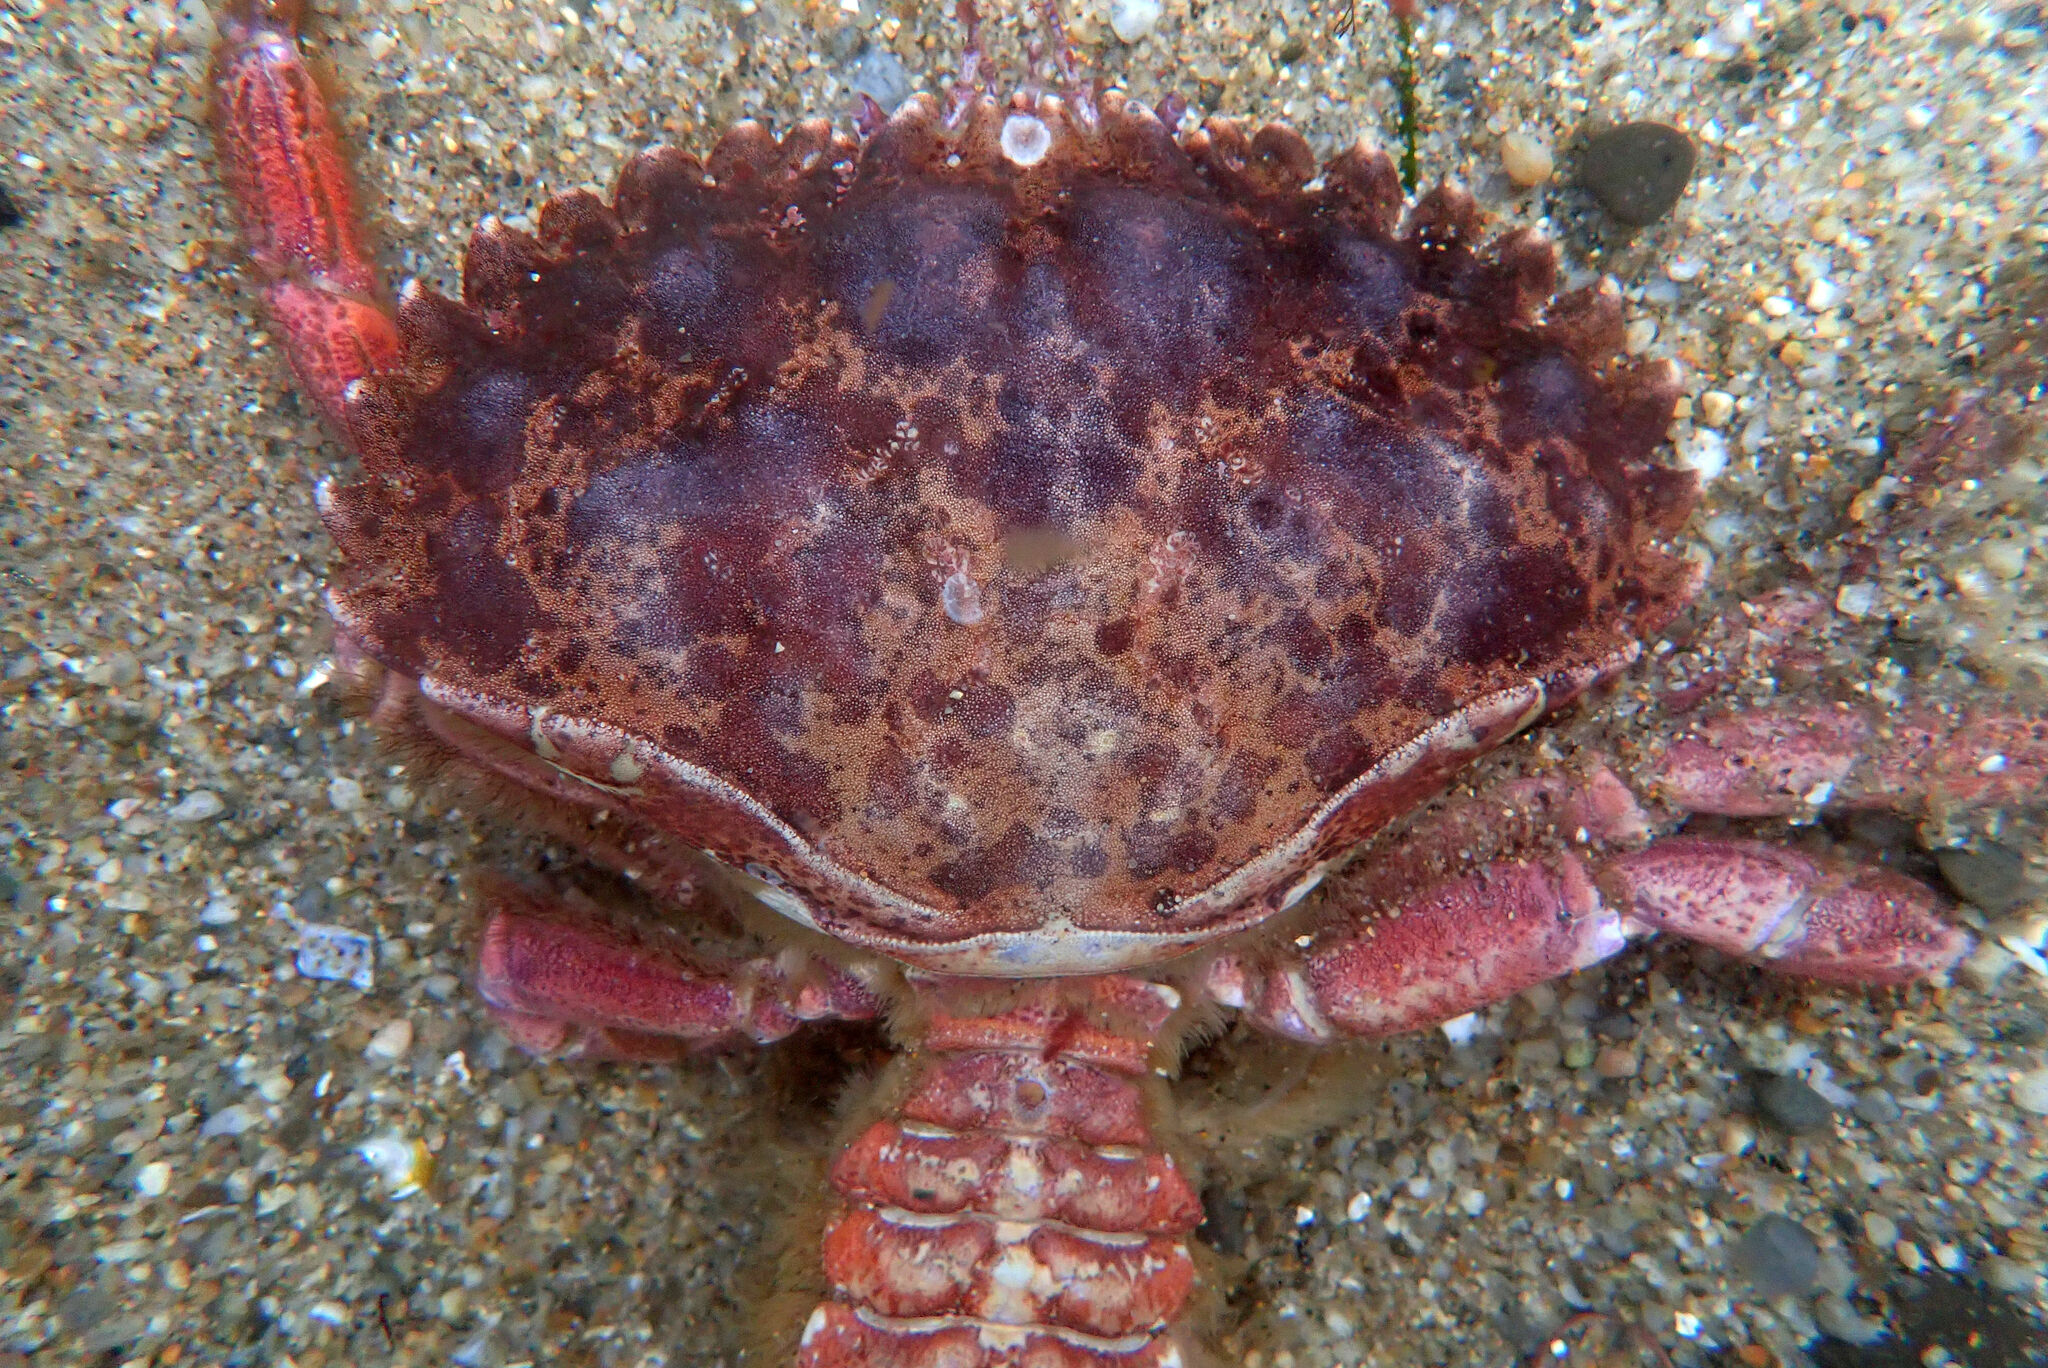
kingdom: Animalia
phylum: Arthropoda
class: Malacostraca
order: Decapoda
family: Cancridae
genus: Romaleon
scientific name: Romaleon antennarium
